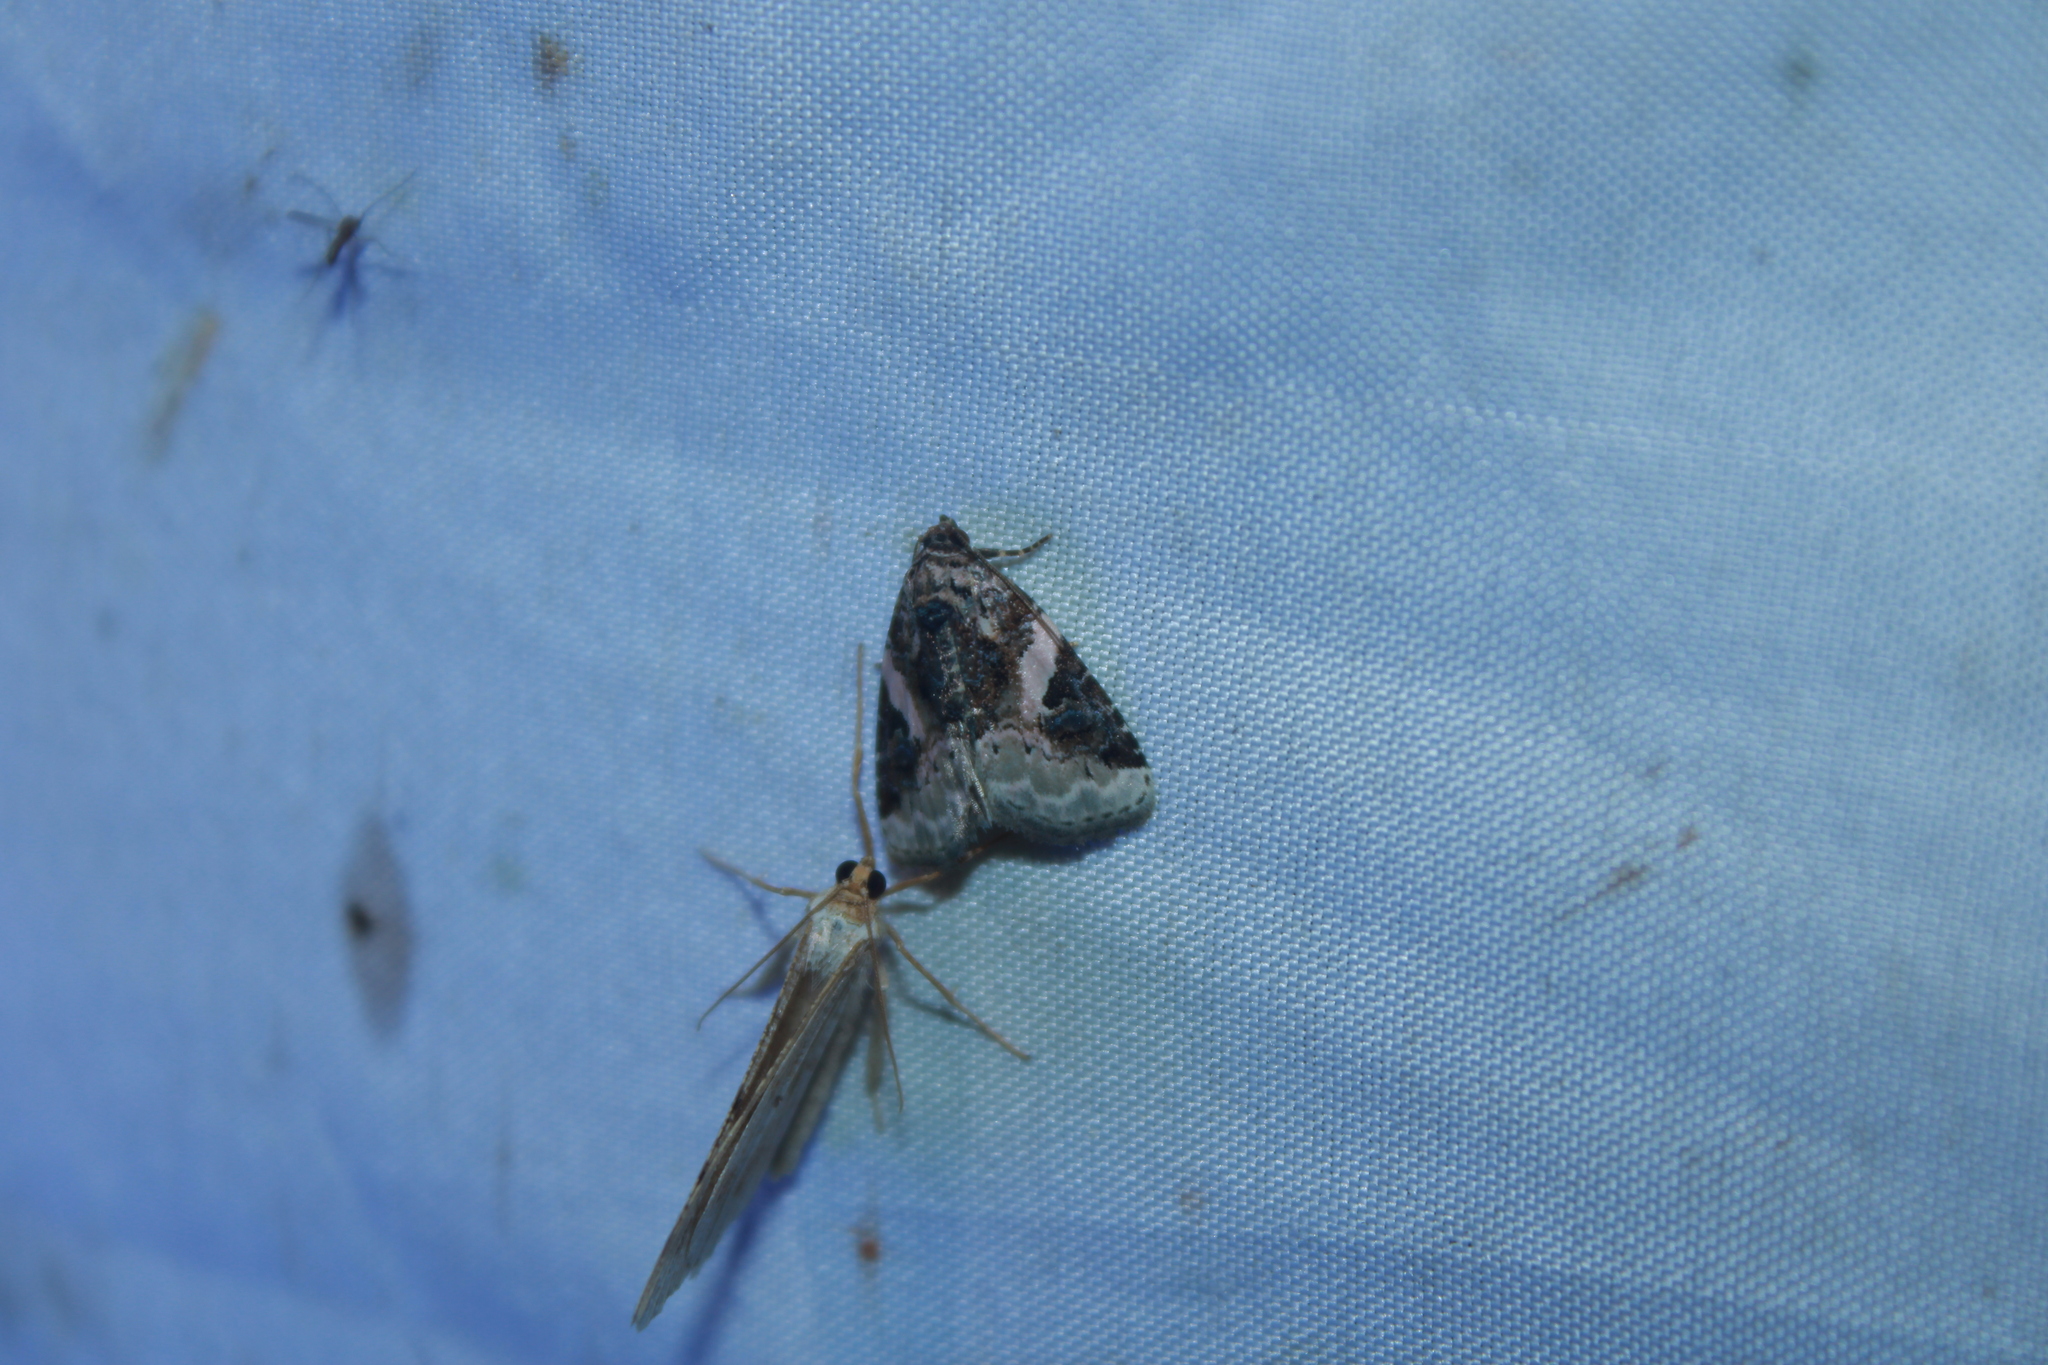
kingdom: Animalia
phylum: Arthropoda
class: Insecta
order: Lepidoptera
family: Noctuidae
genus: Pseudeustrotia
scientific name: Pseudeustrotia carneola
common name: Pink-barred lithacodia moth
